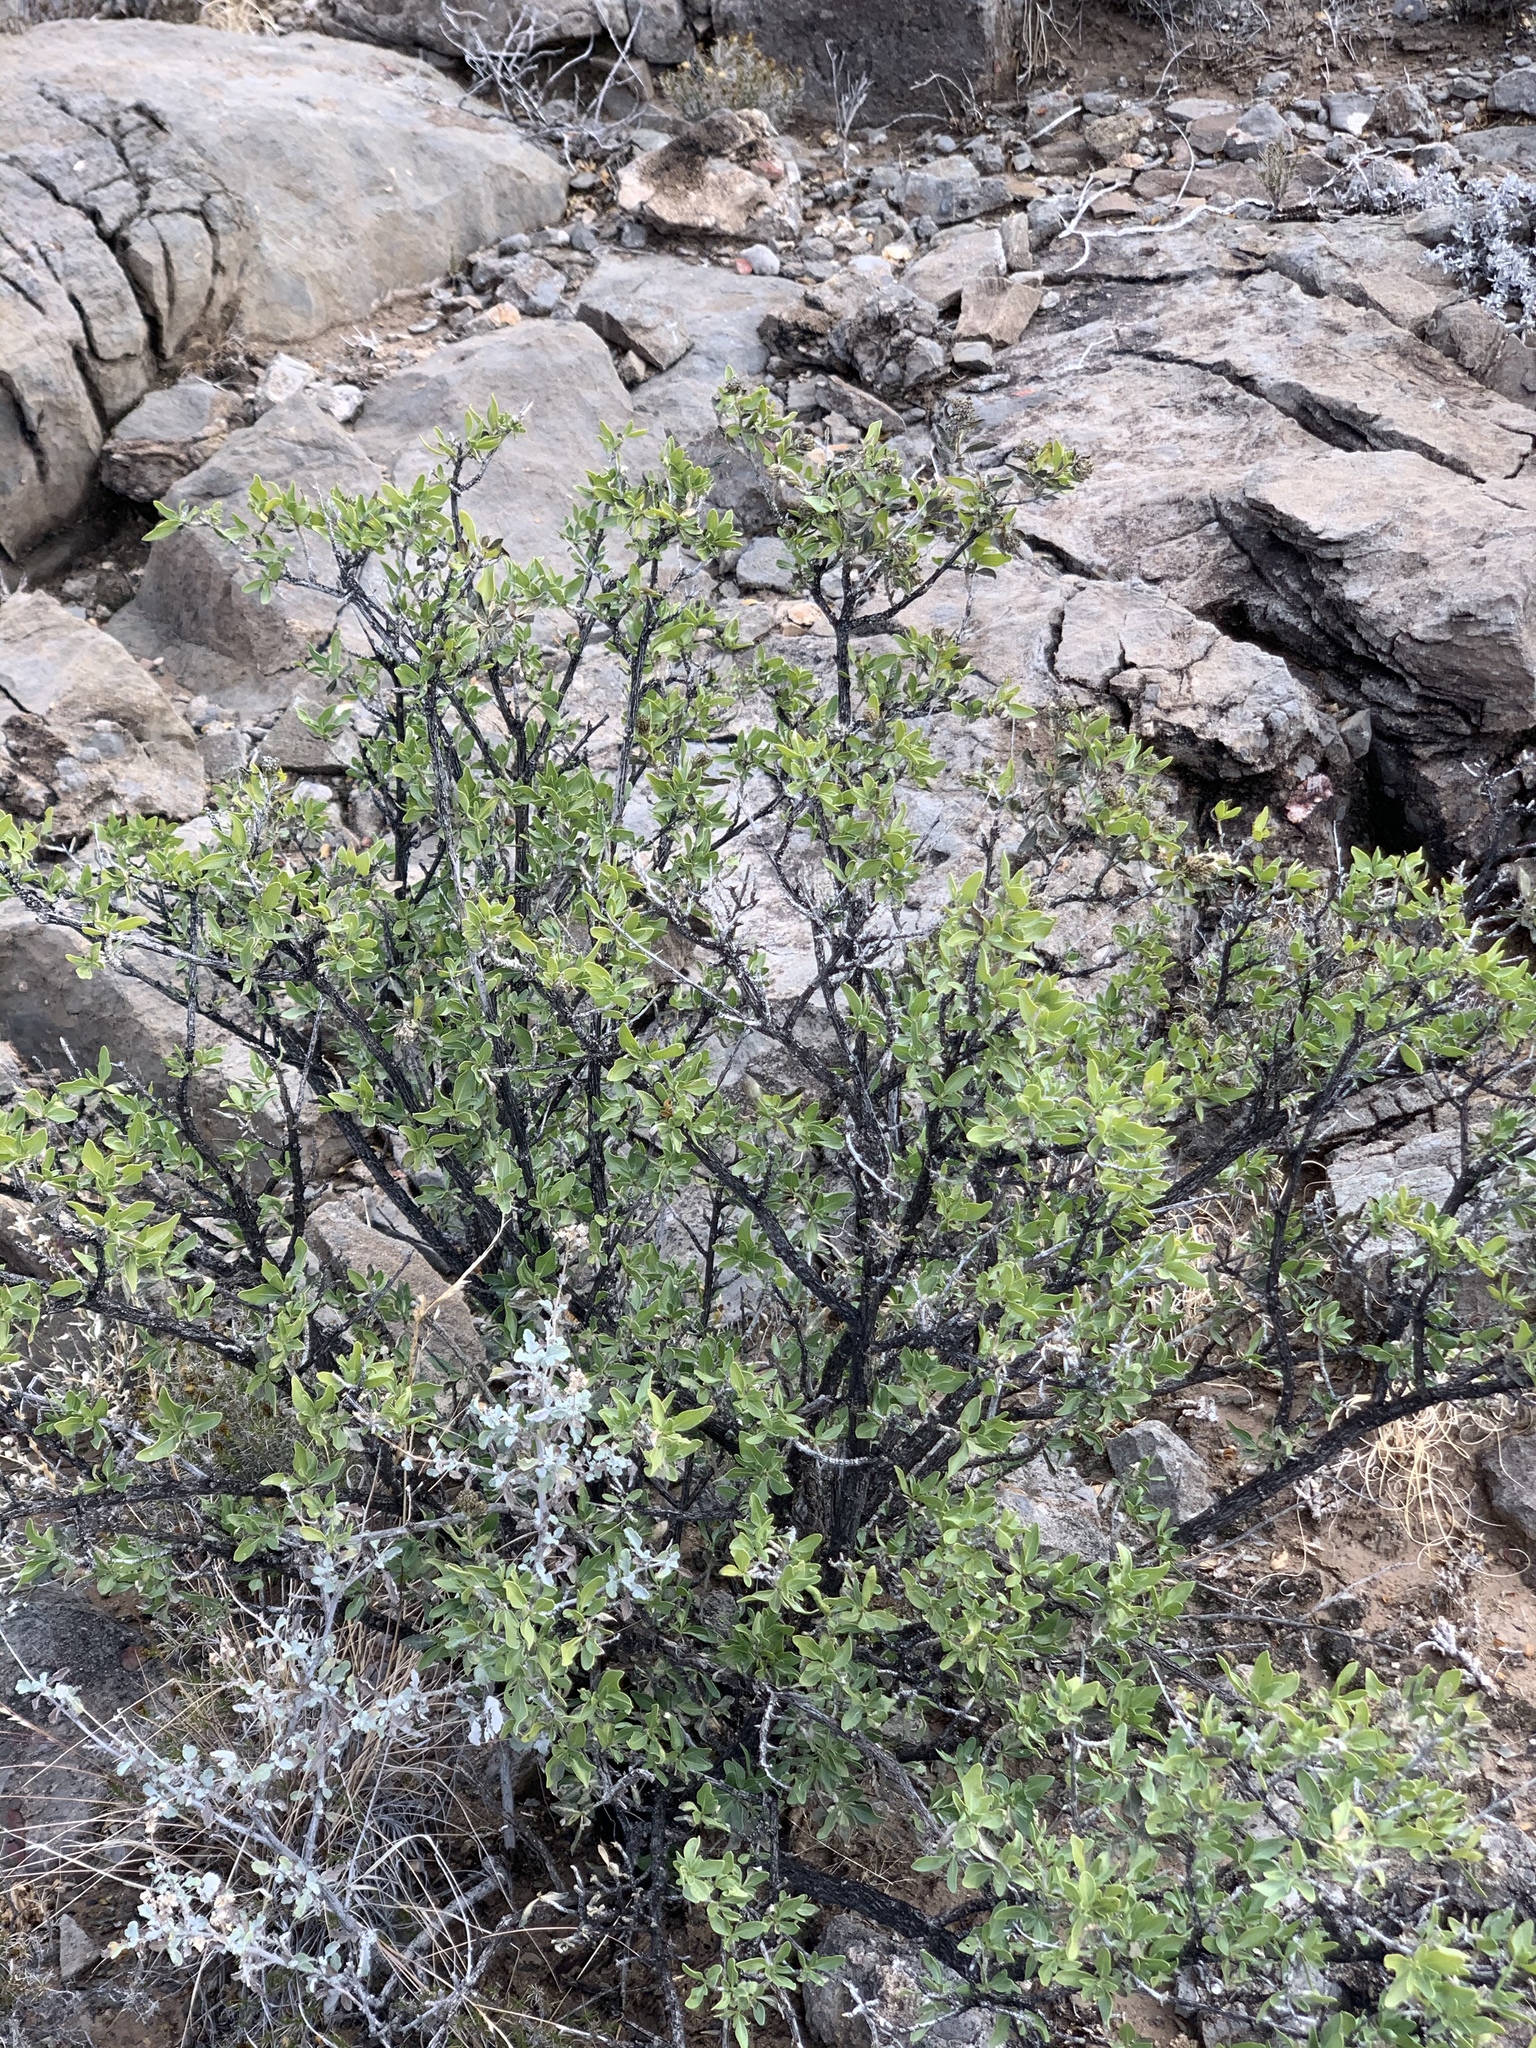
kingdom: Plantae
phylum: Tracheophyta
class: Magnoliopsida
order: Asterales
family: Asteraceae
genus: Flourensia
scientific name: Flourensia cernua
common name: Varnishbush
